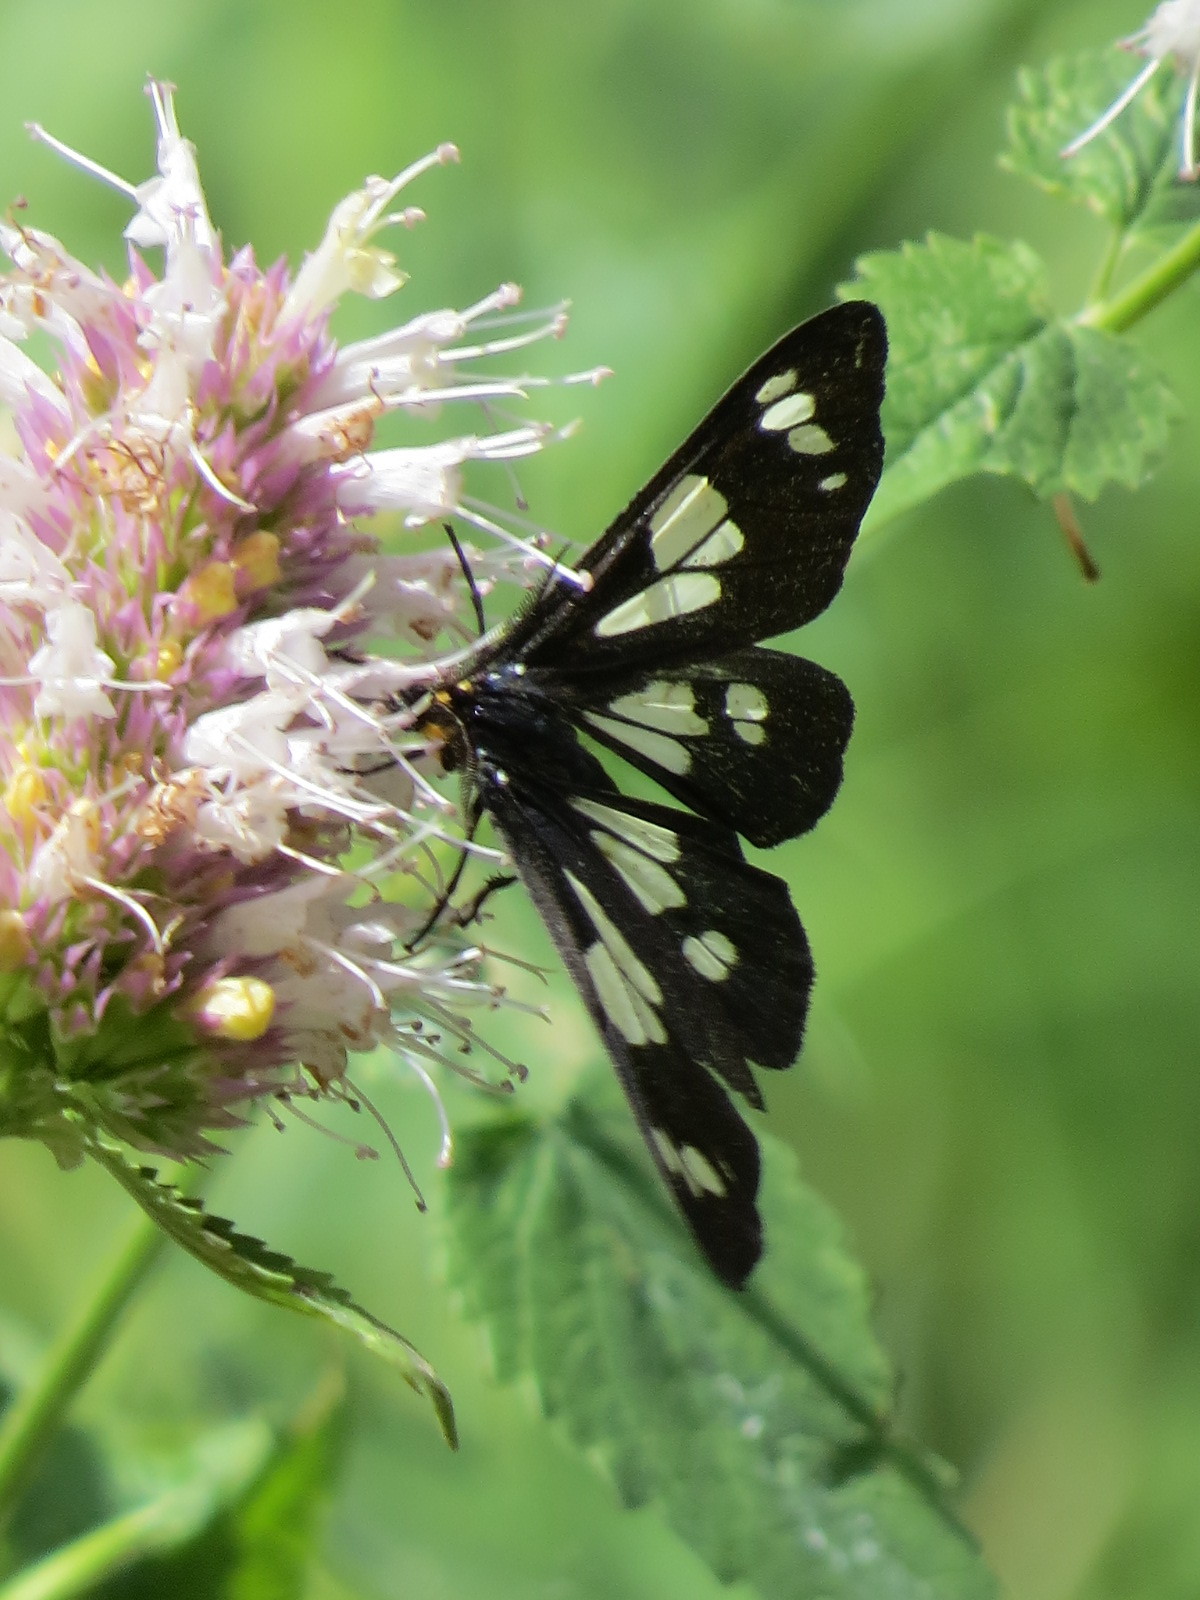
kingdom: Animalia
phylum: Arthropoda
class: Insecta
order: Lepidoptera
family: Erebidae
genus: Gnophaela
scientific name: Gnophaela latipennis
